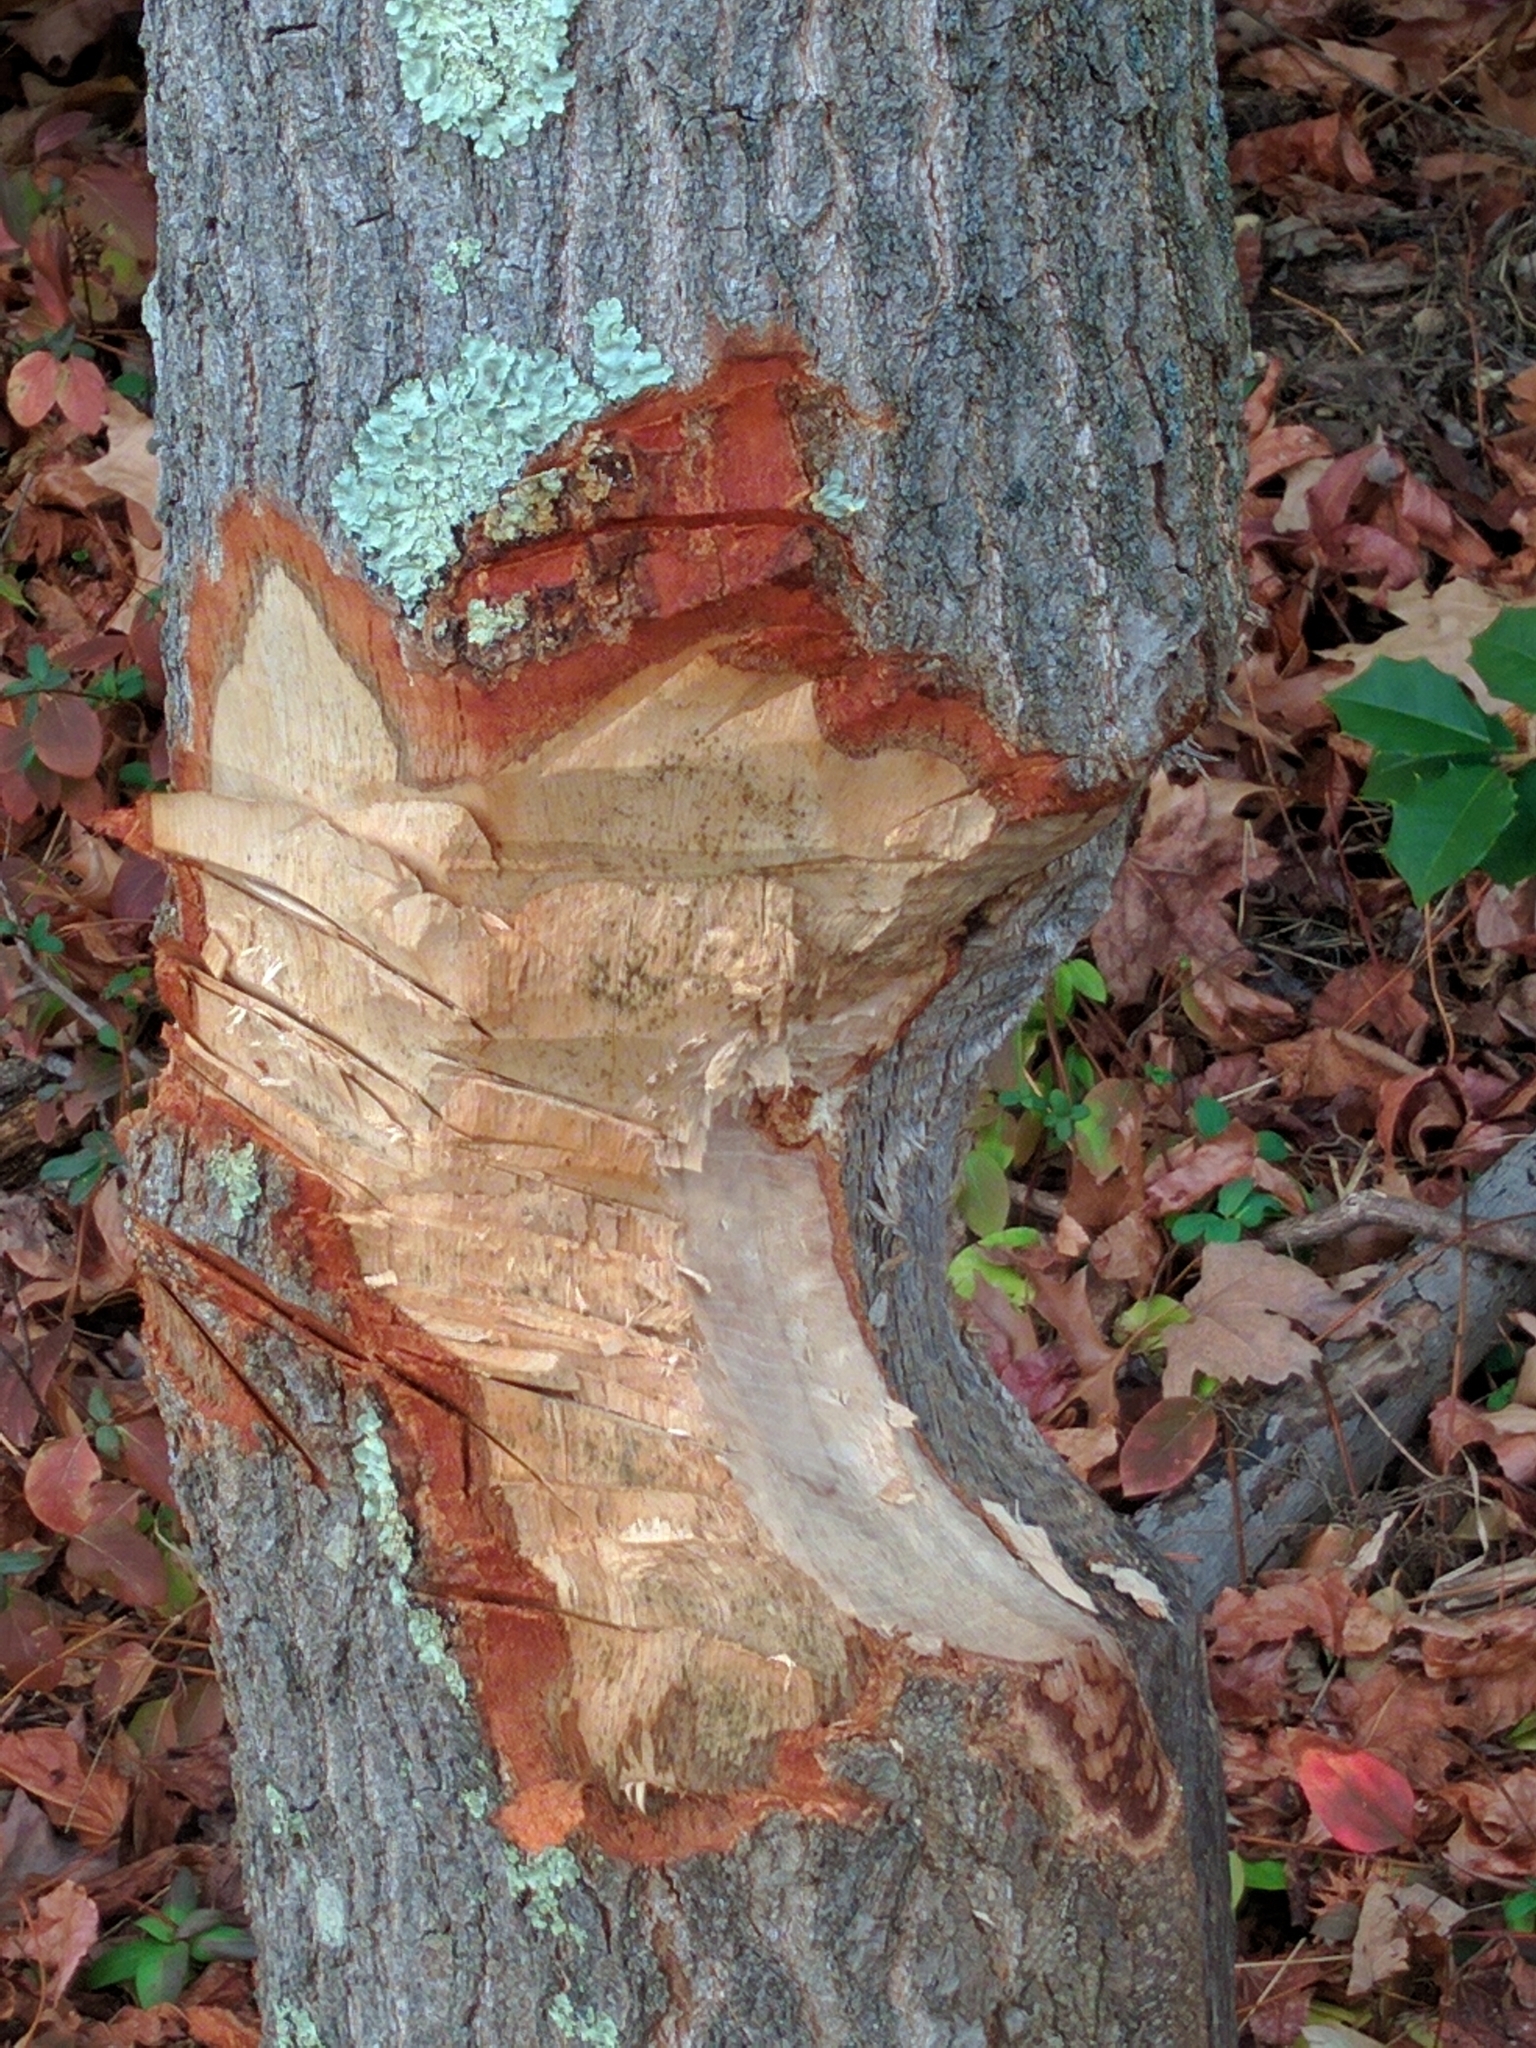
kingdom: Animalia
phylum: Chordata
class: Mammalia
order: Rodentia
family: Castoridae
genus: Castor
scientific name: Castor canadensis
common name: American beaver
